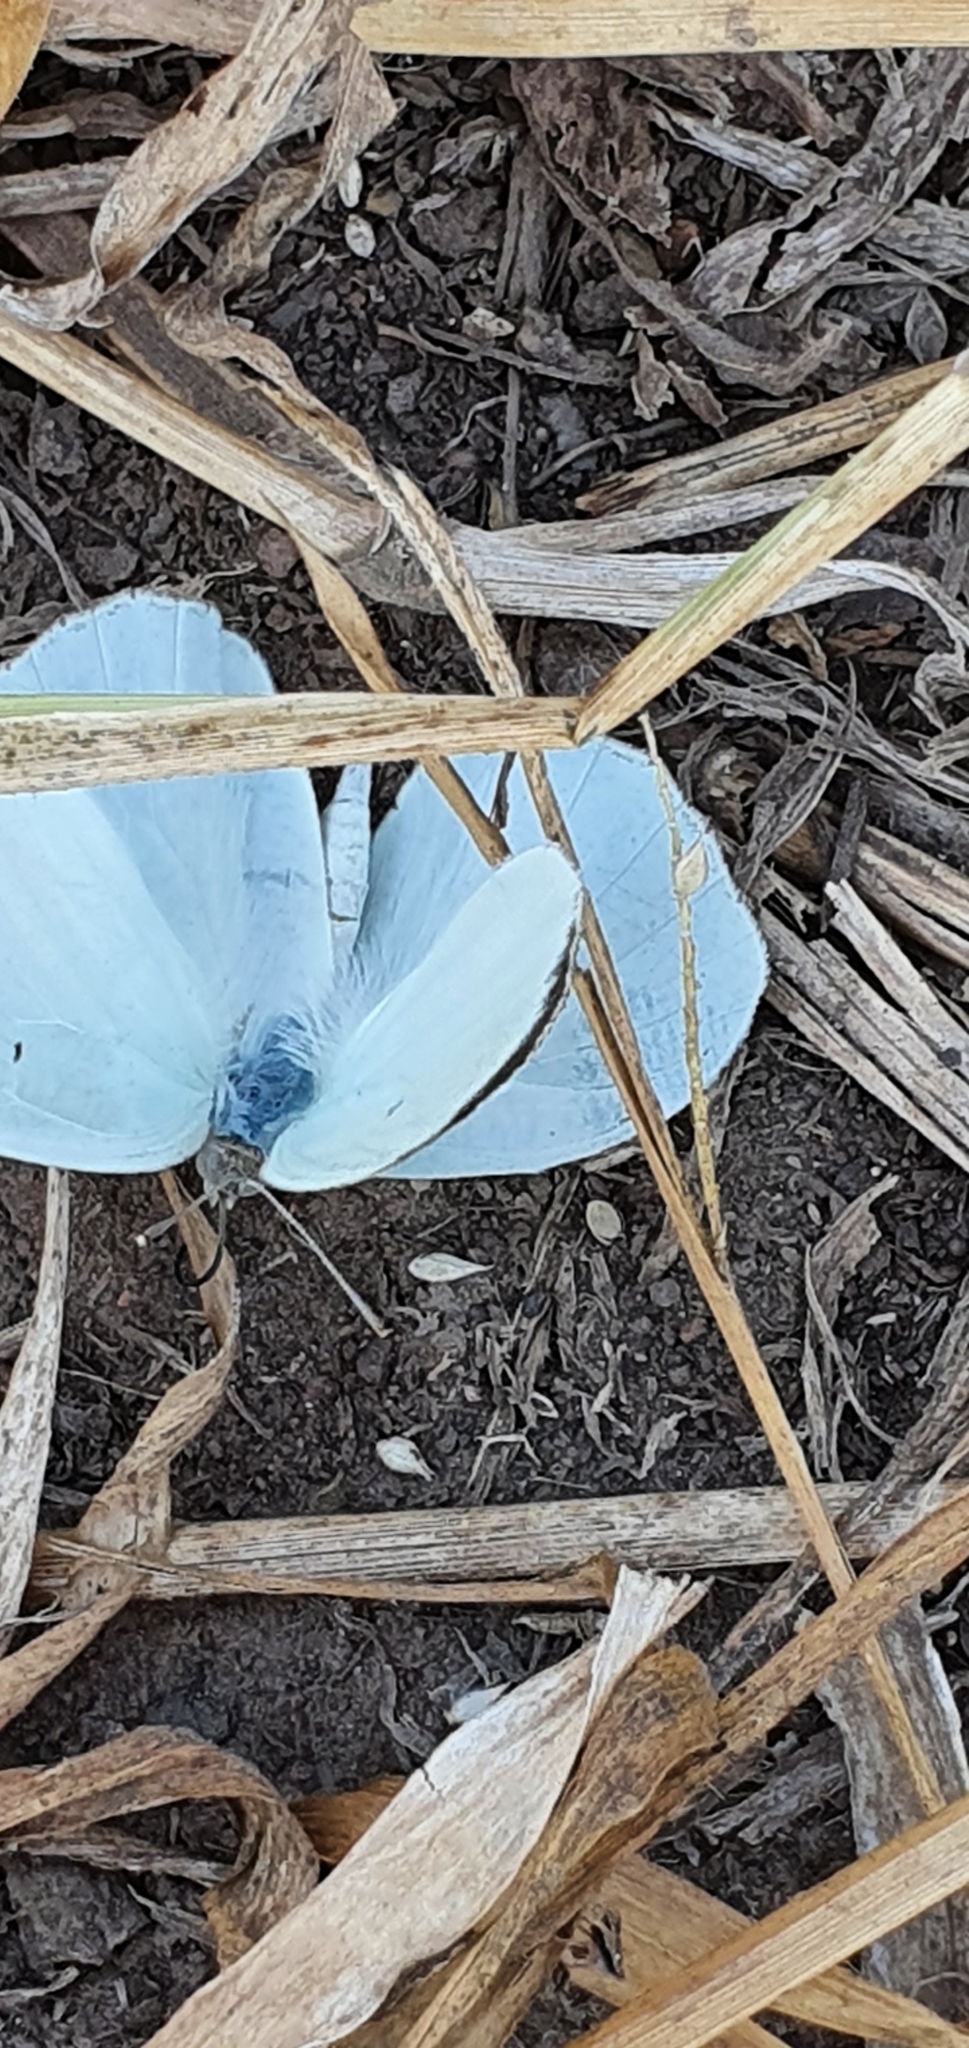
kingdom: Animalia
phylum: Arthropoda
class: Insecta
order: Lepidoptera
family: Pieridae
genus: Catopsilia
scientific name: Catopsilia pyranthe
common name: Mottled emigrant
